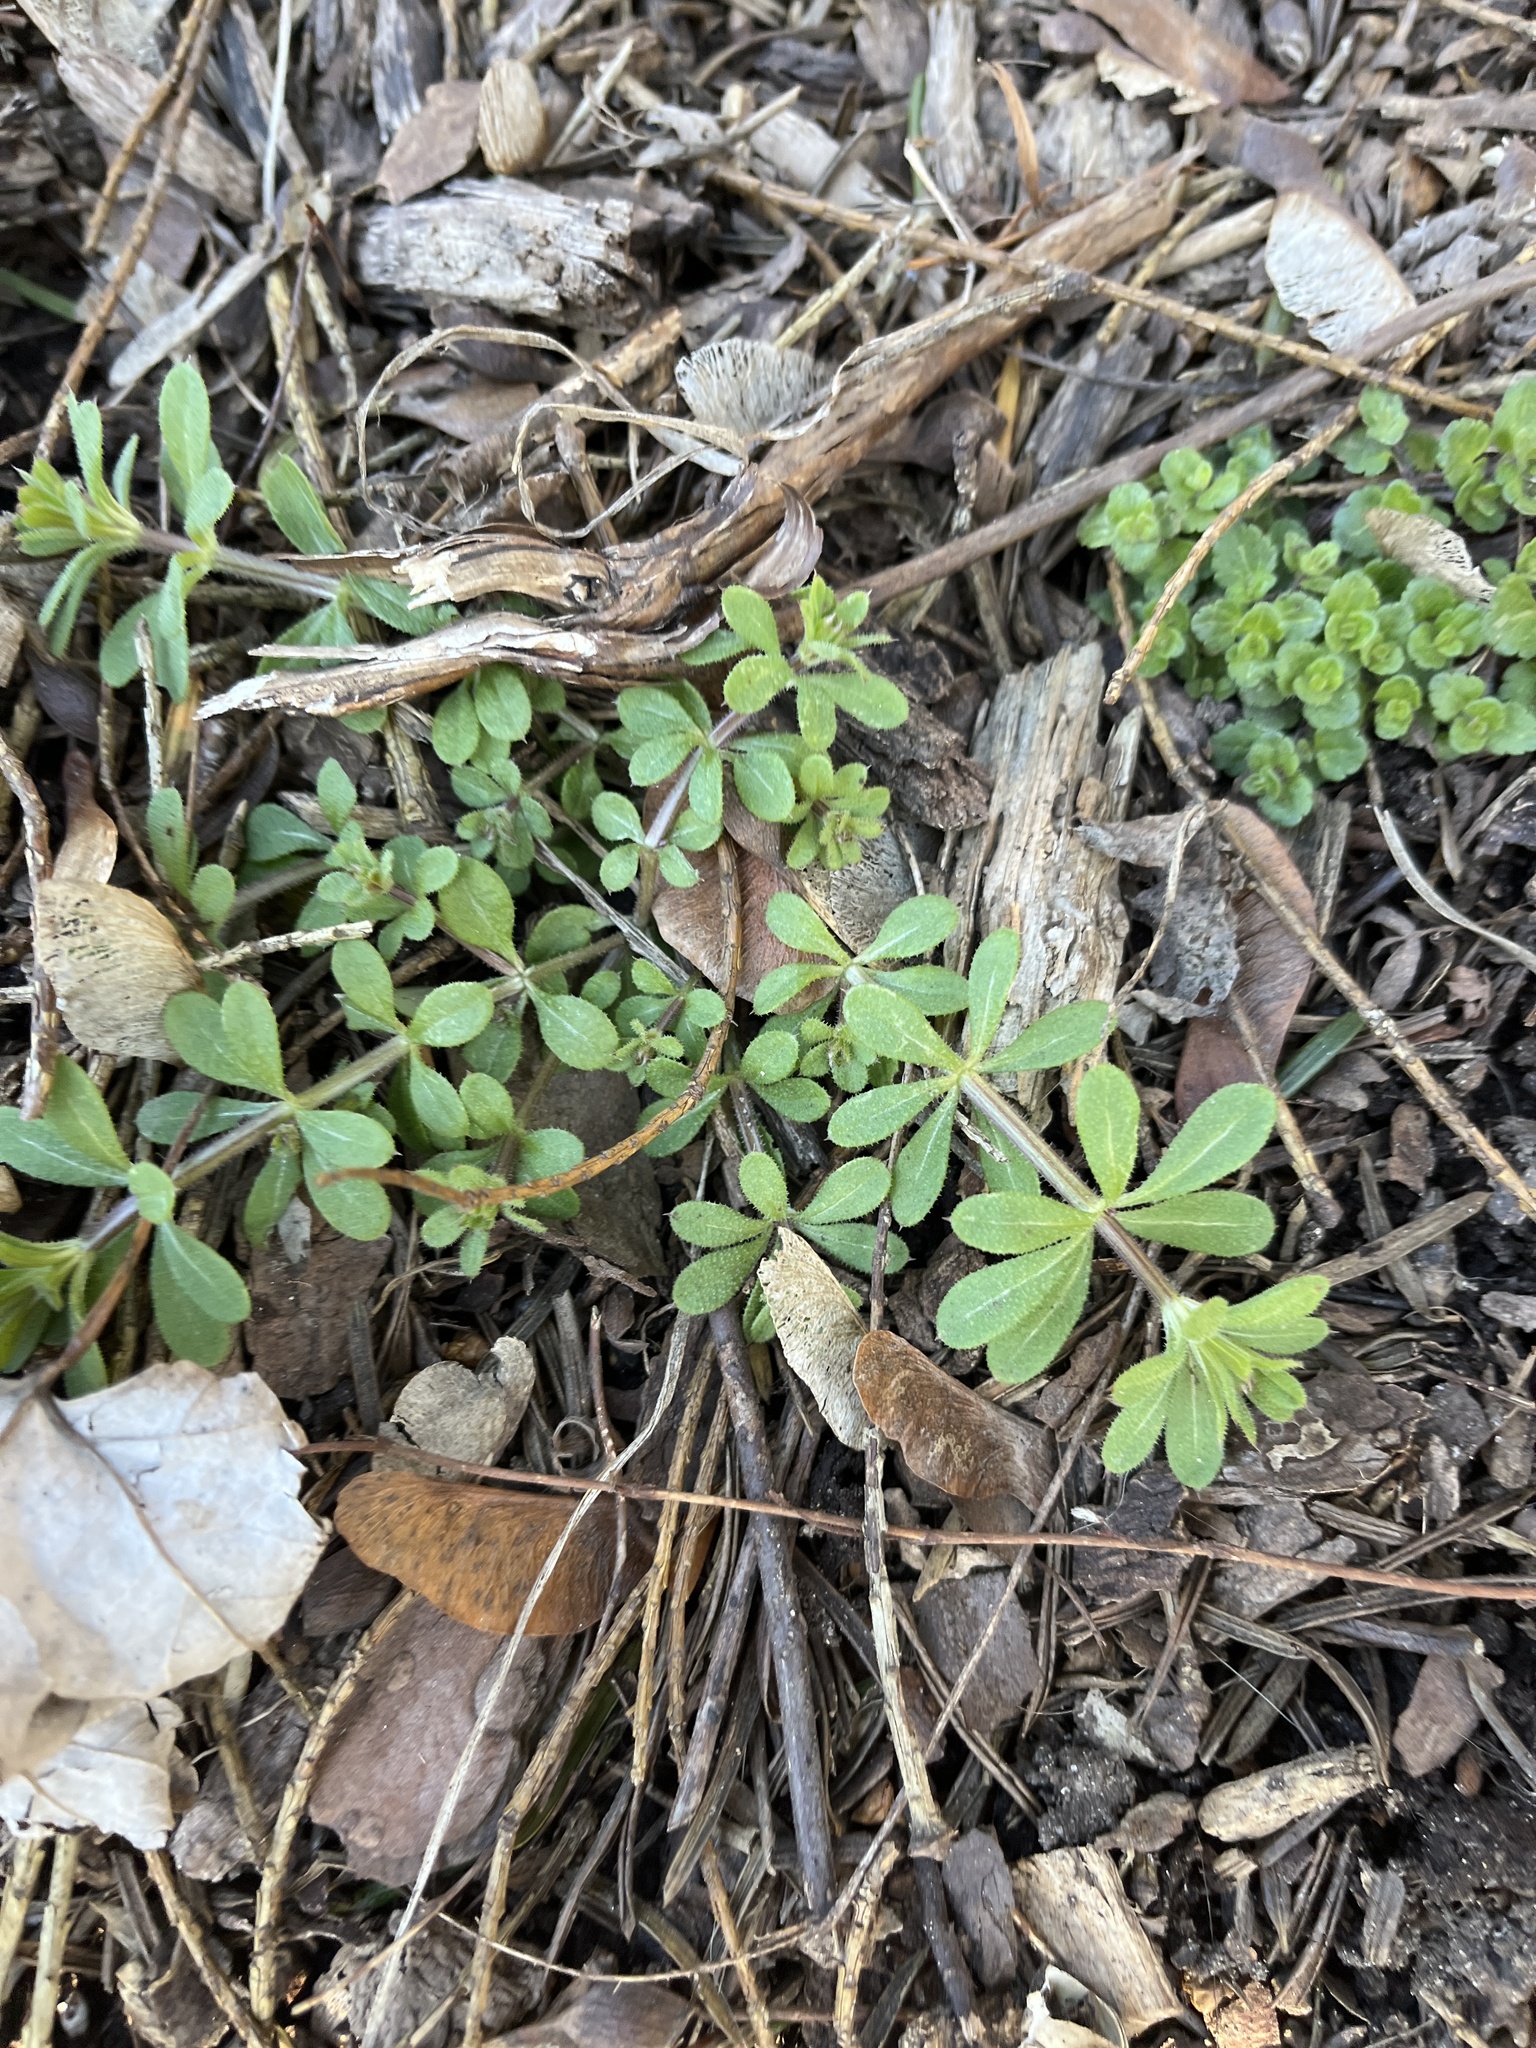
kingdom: Plantae
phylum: Tracheophyta
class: Magnoliopsida
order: Gentianales
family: Rubiaceae
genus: Galium
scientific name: Galium aparine
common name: Cleavers
